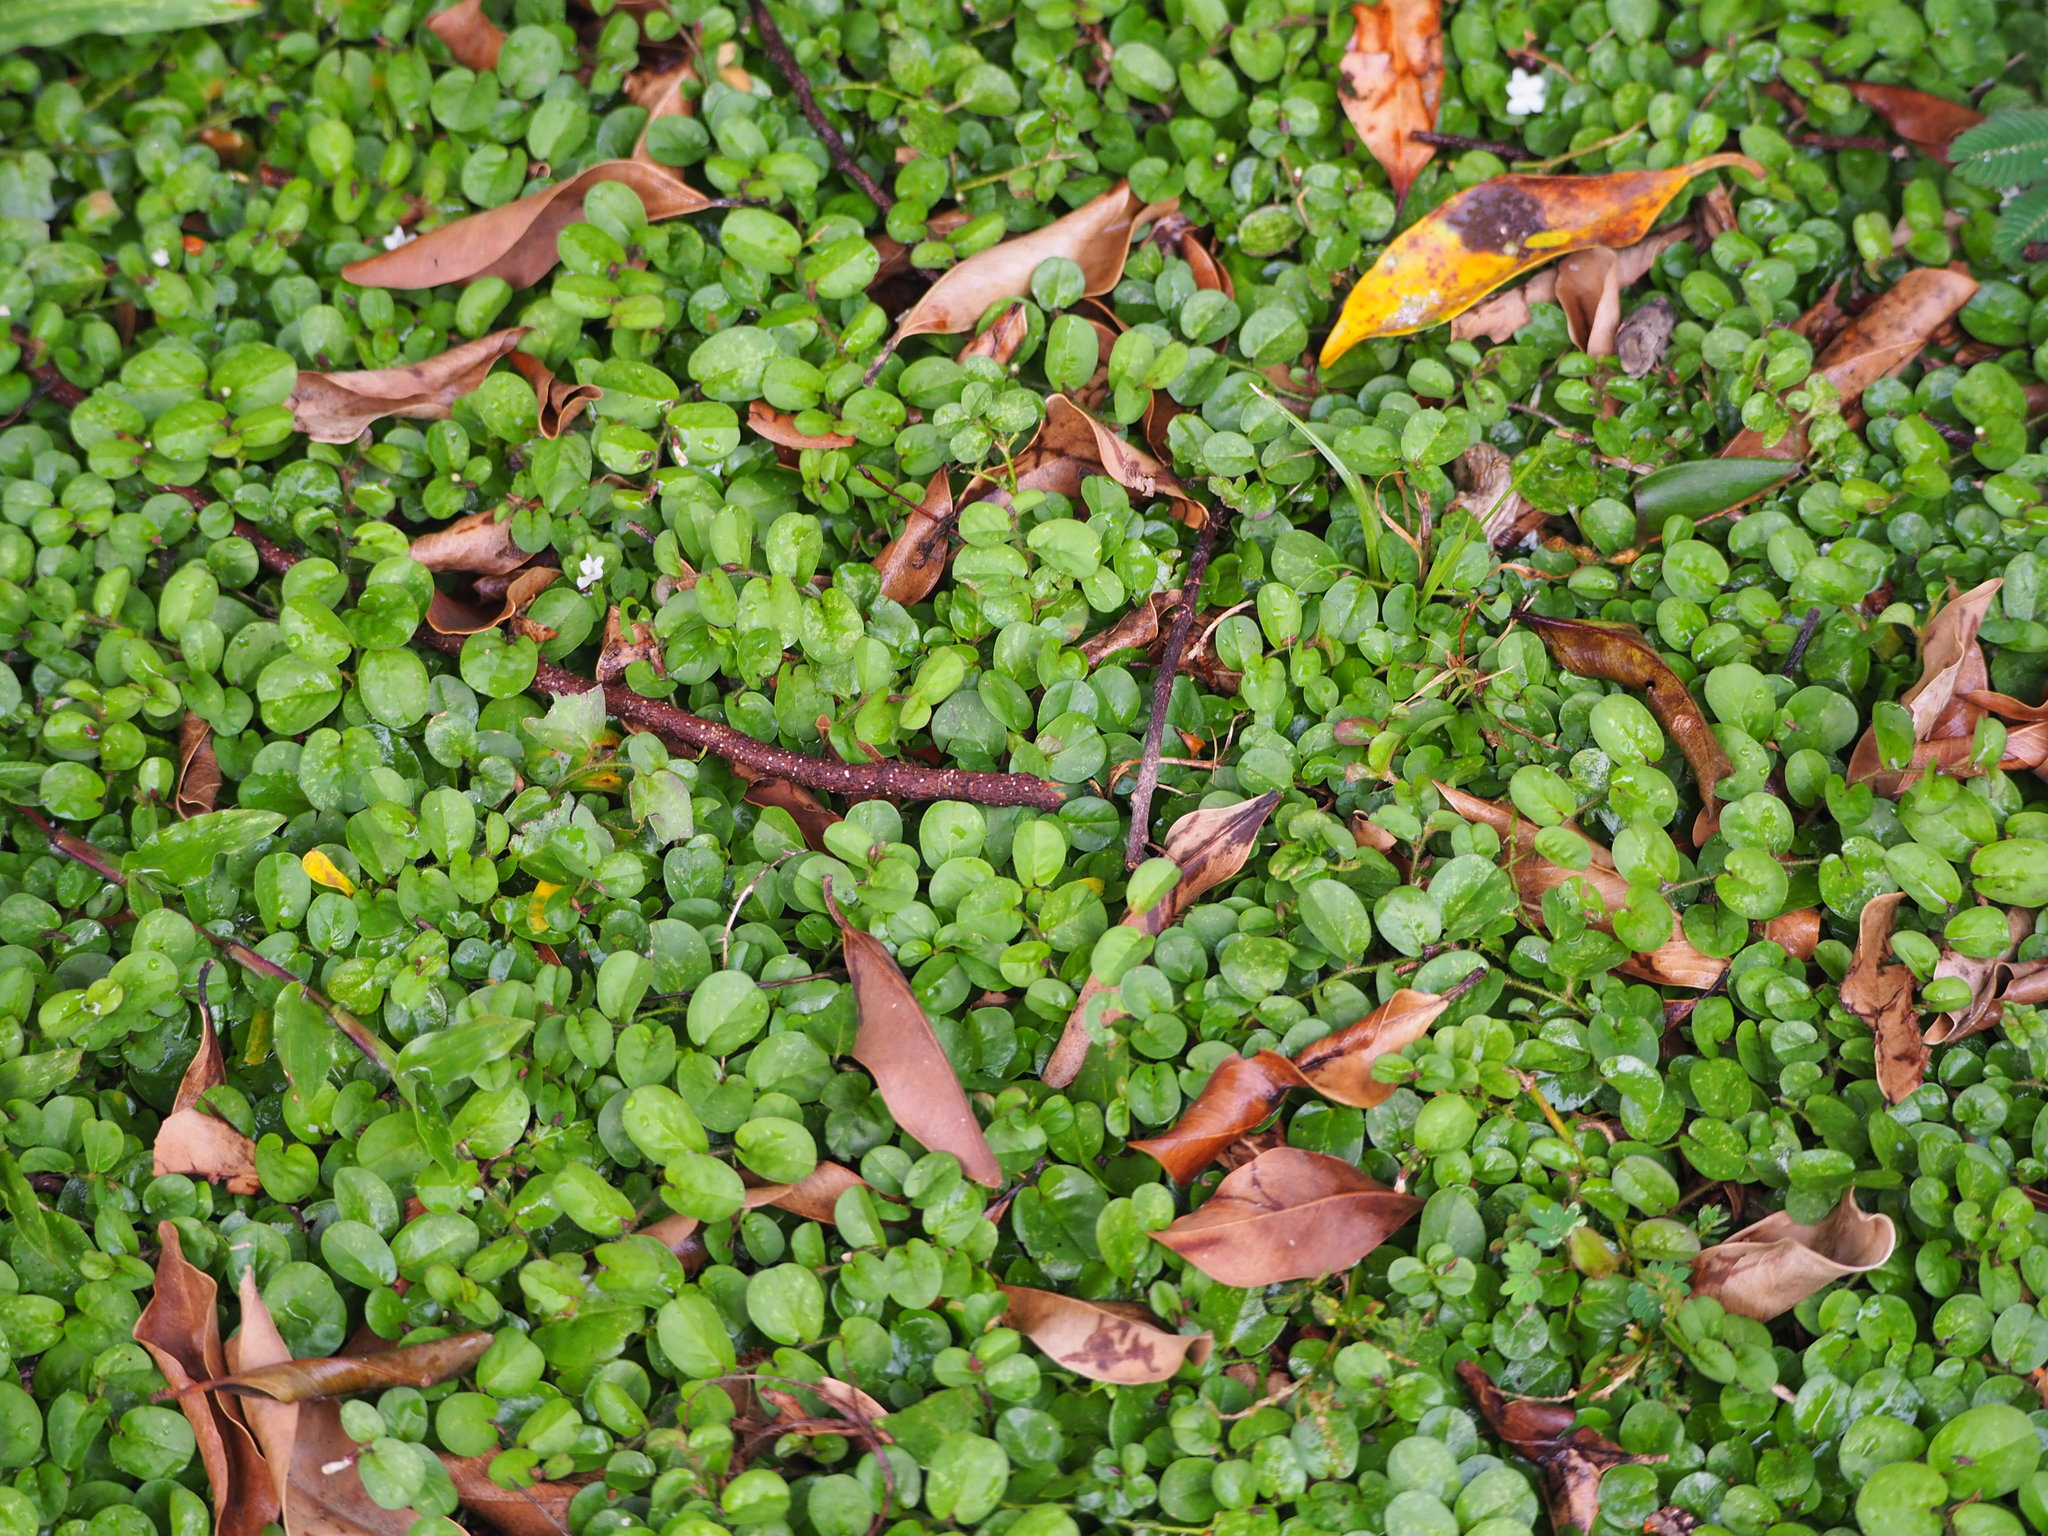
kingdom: Plantae
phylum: Tracheophyta
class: Magnoliopsida
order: Solanales
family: Convolvulaceae
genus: Evolvulus
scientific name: Evolvulus nummularius
